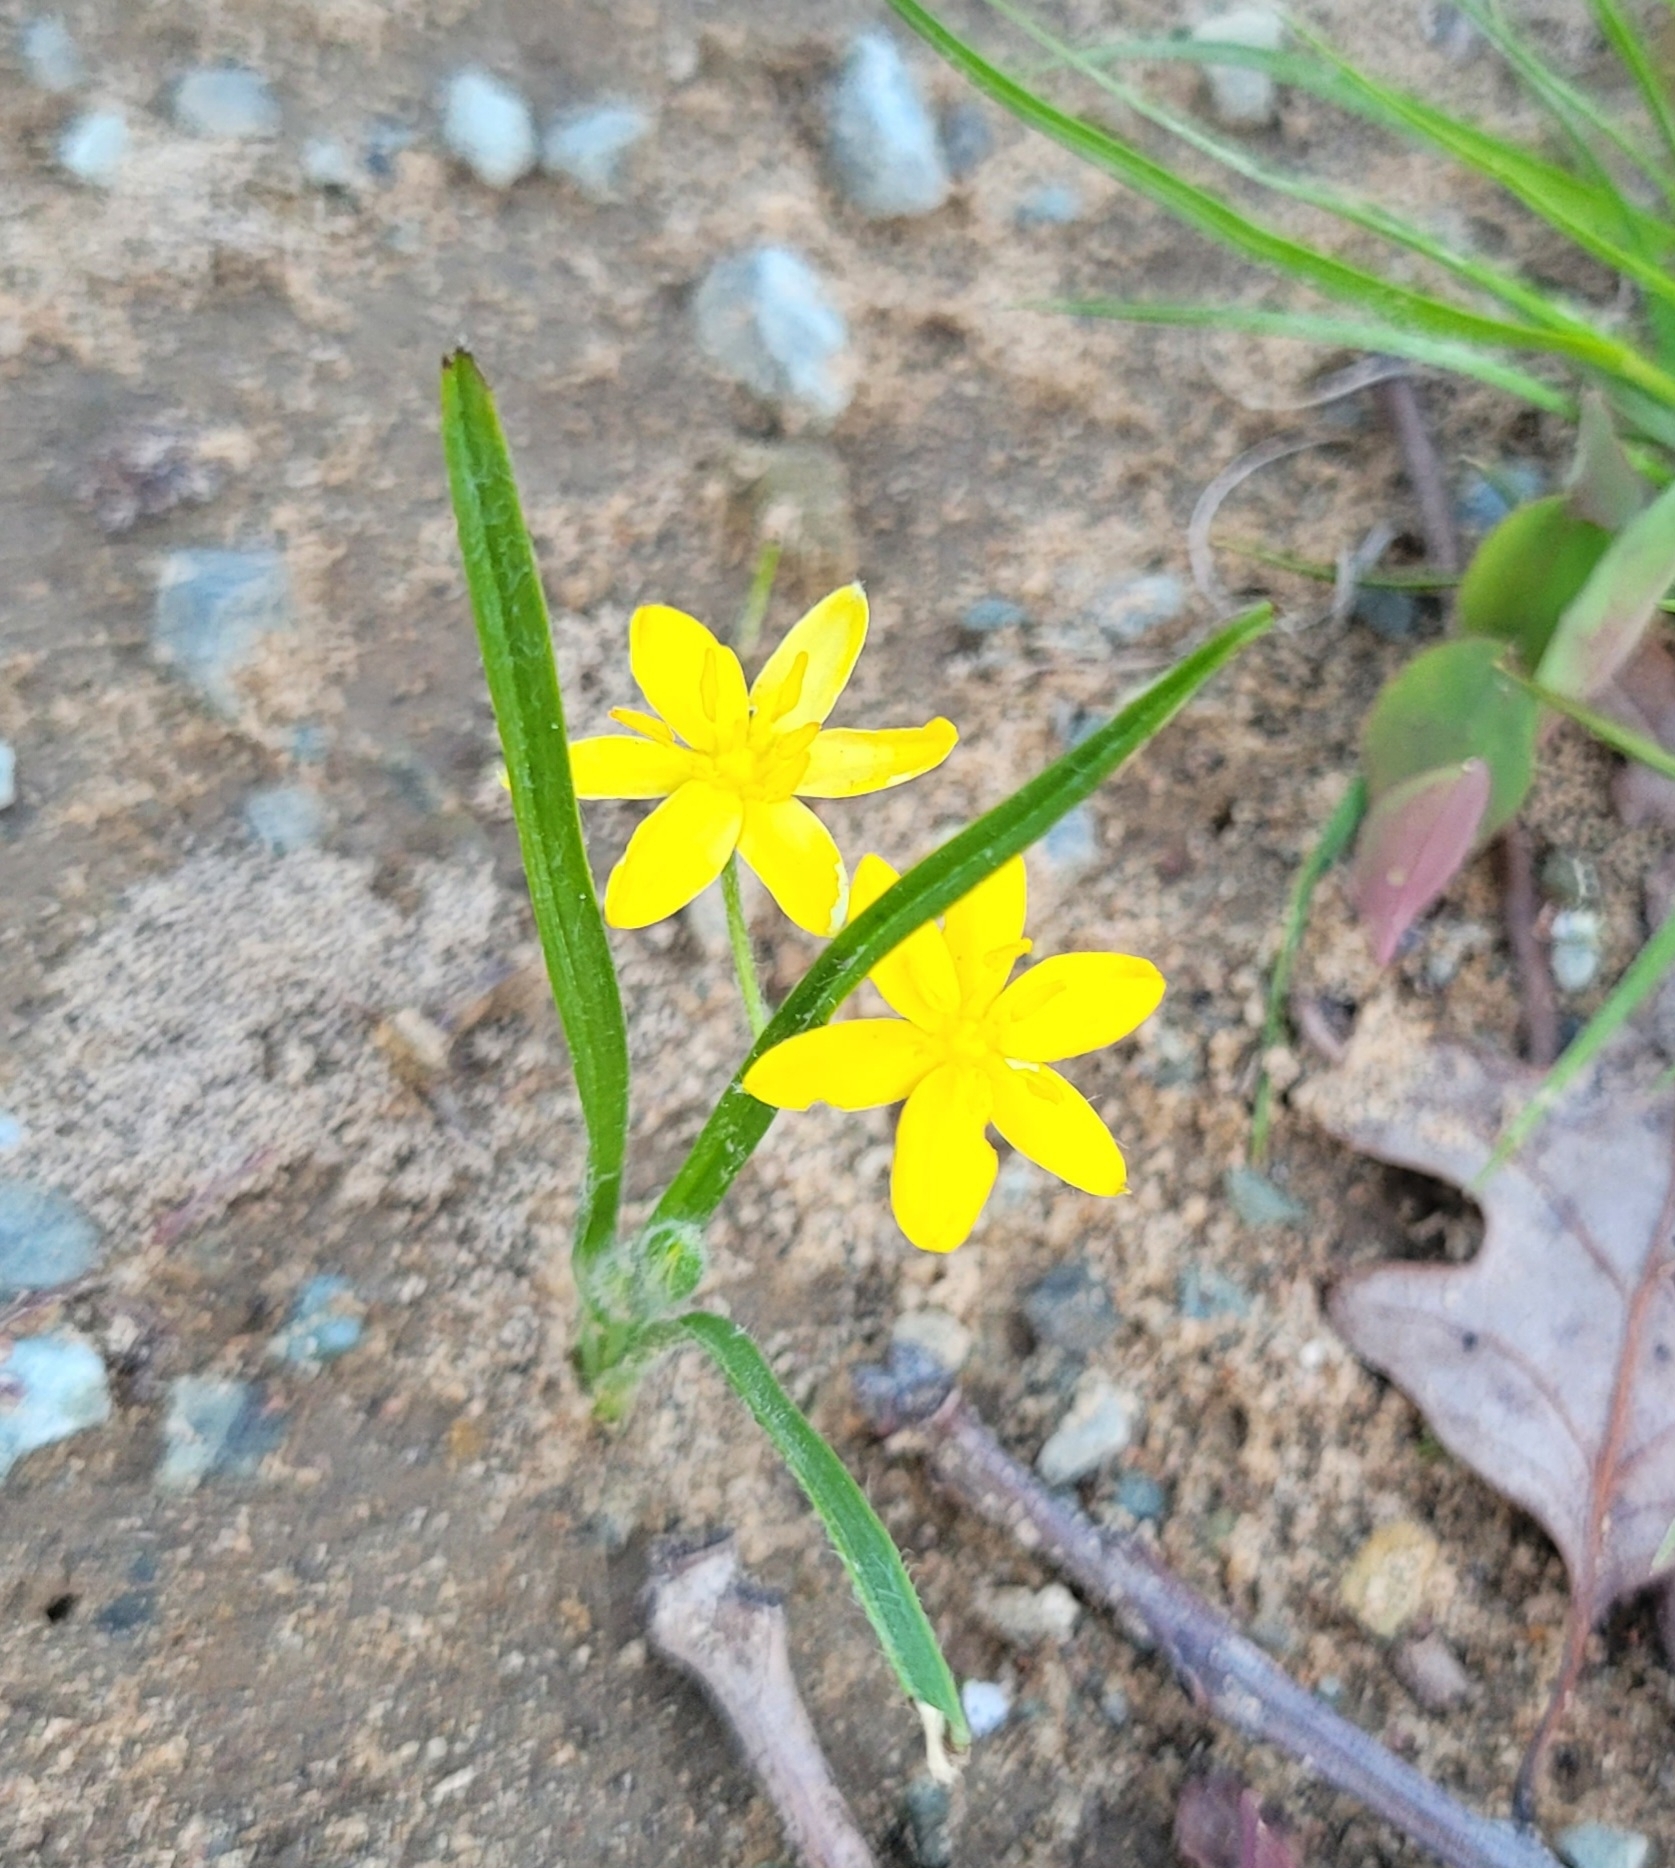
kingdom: Plantae
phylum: Tracheophyta
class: Liliopsida
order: Asparagales
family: Hypoxidaceae
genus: Hypoxis
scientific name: Hypoxis hirsuta
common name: Common goldstar
